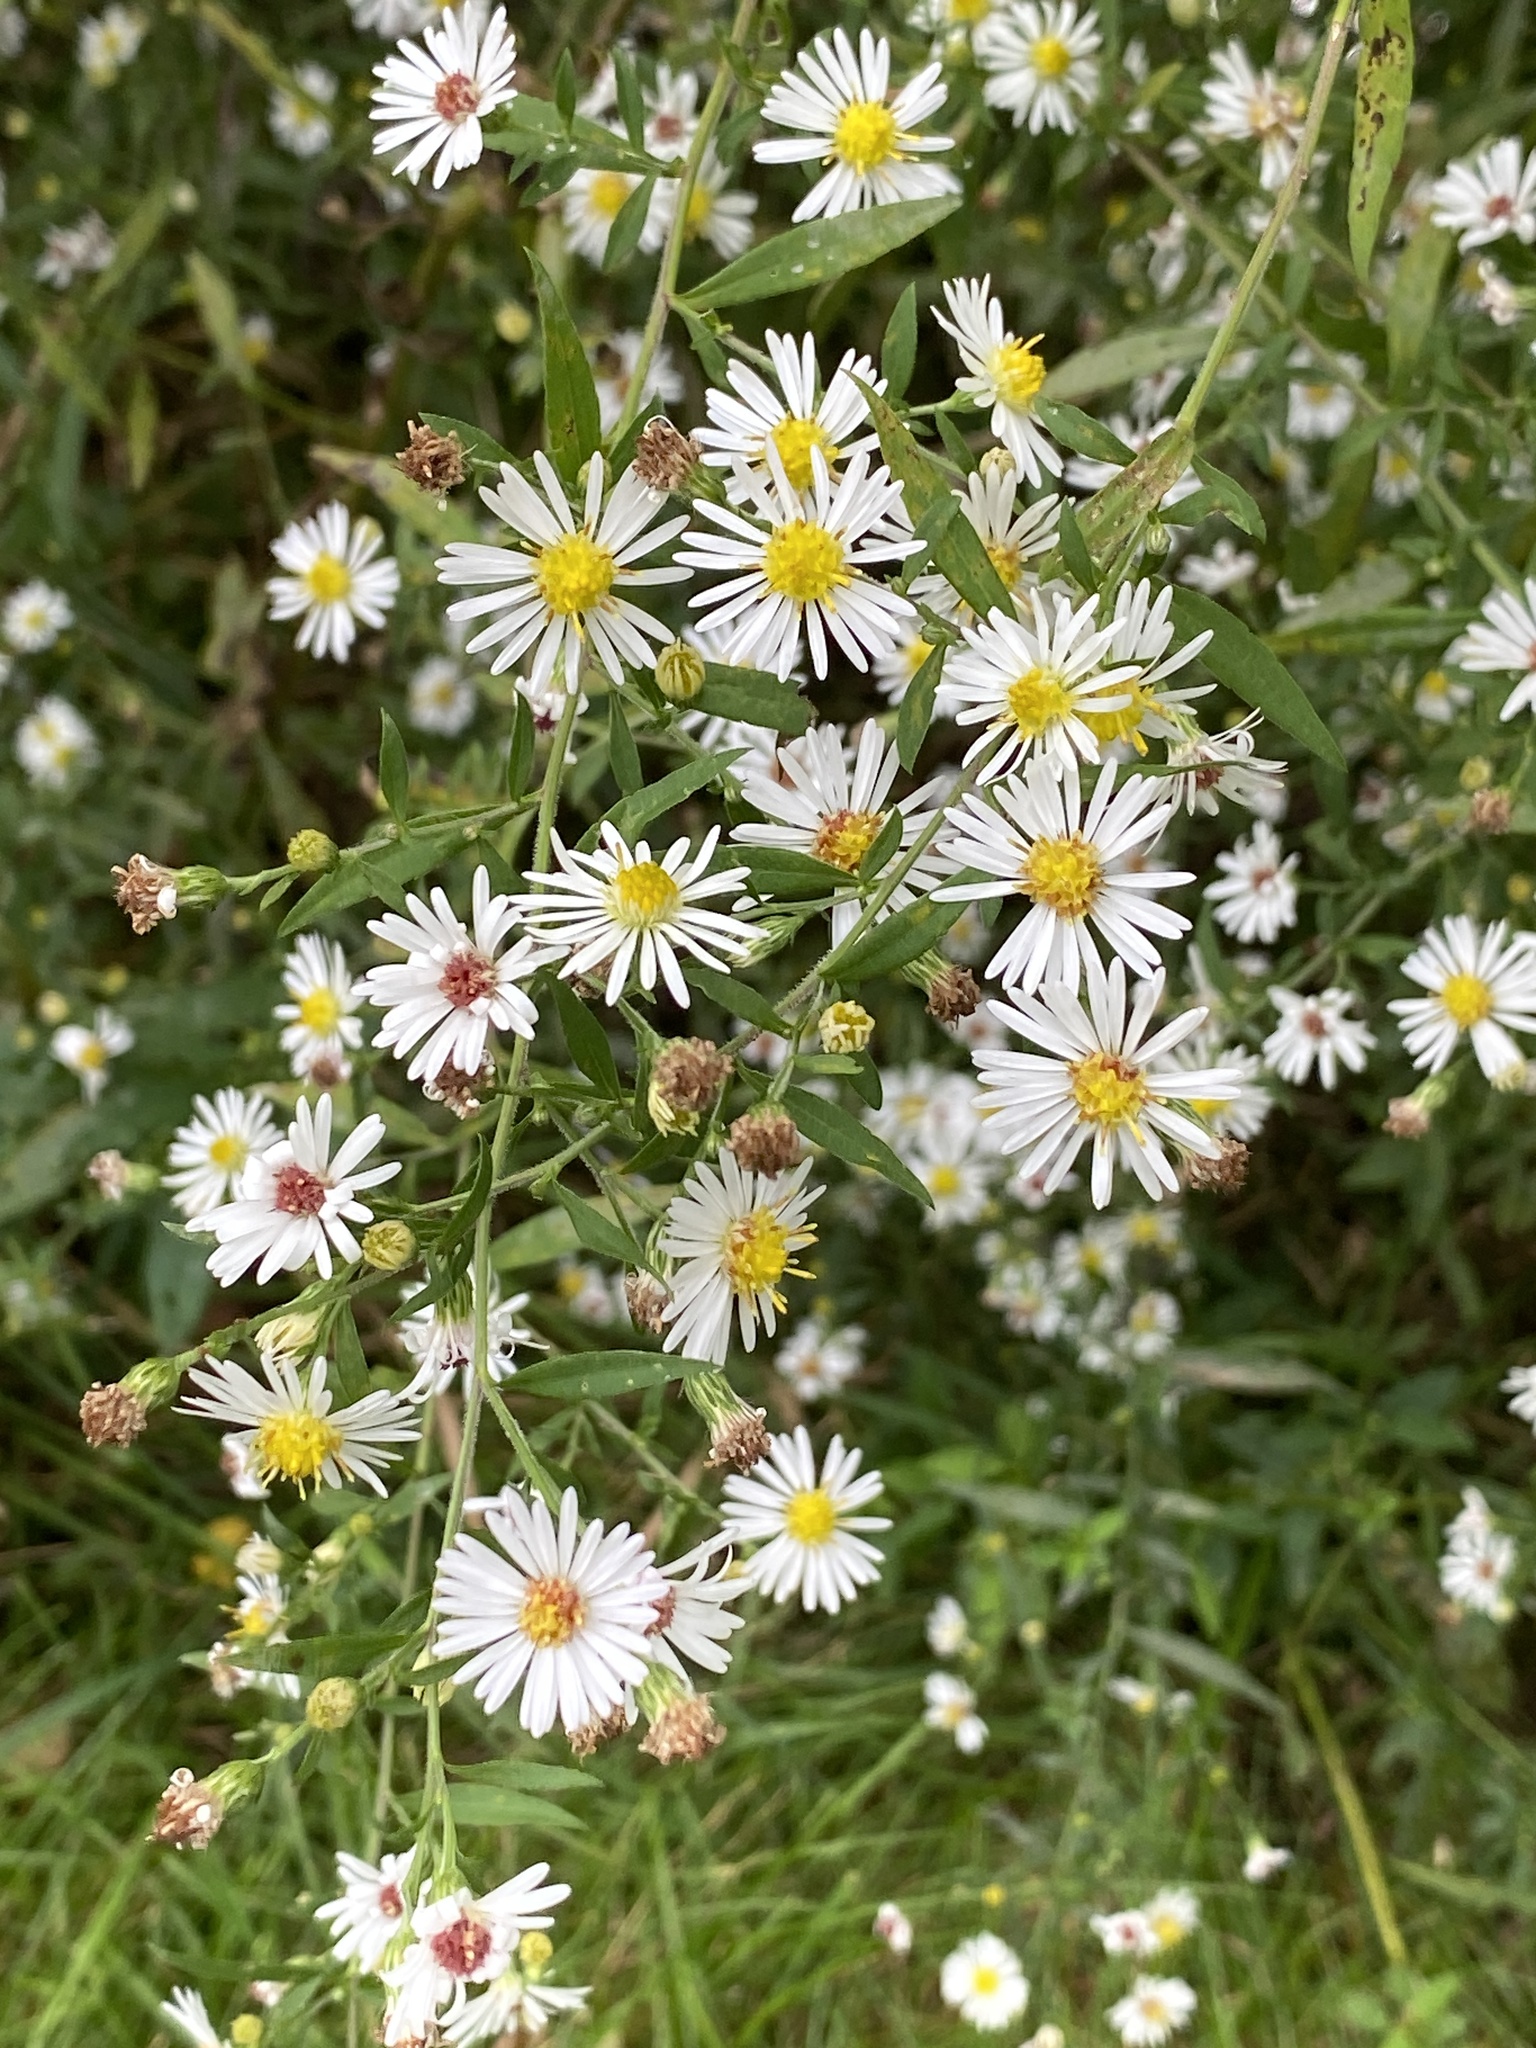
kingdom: Plantae
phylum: Tracheophyta
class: Magnoliopsida
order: Asterales
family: Asteraceae
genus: Symphyotrichum
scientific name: Symphyotrichum lanceolatum
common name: Panicled aster
